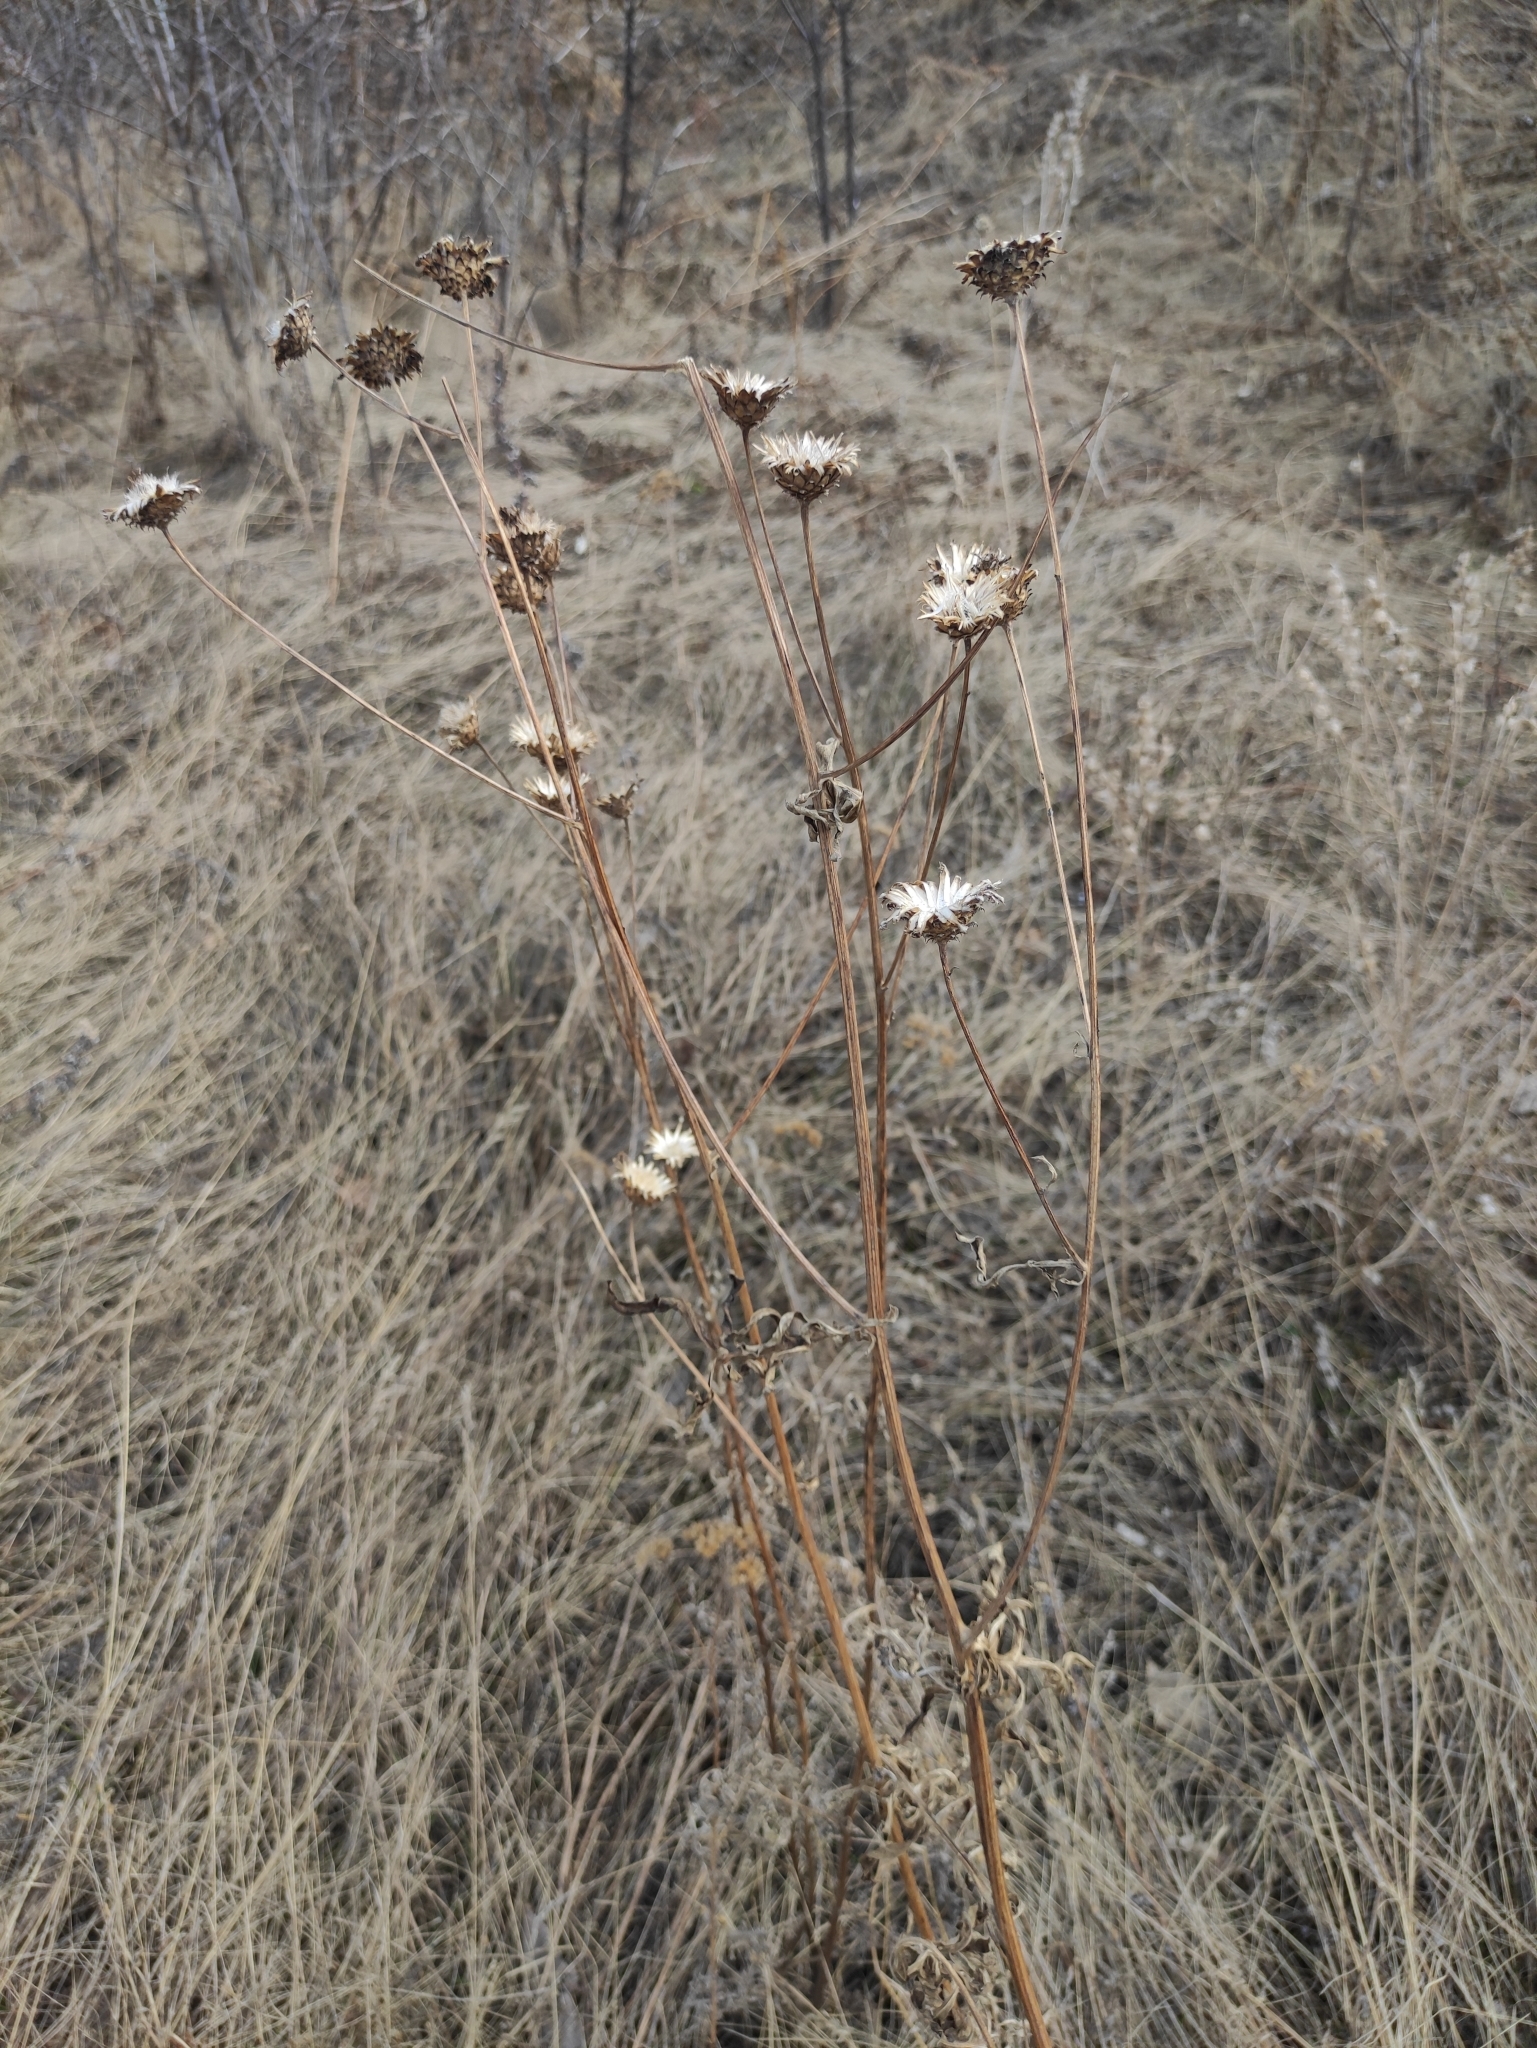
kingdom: Plantae
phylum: Tracheophyta
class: Magnoliopsida
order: Asterales
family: Asteraceae
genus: Klasea
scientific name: Klasea centauroides
